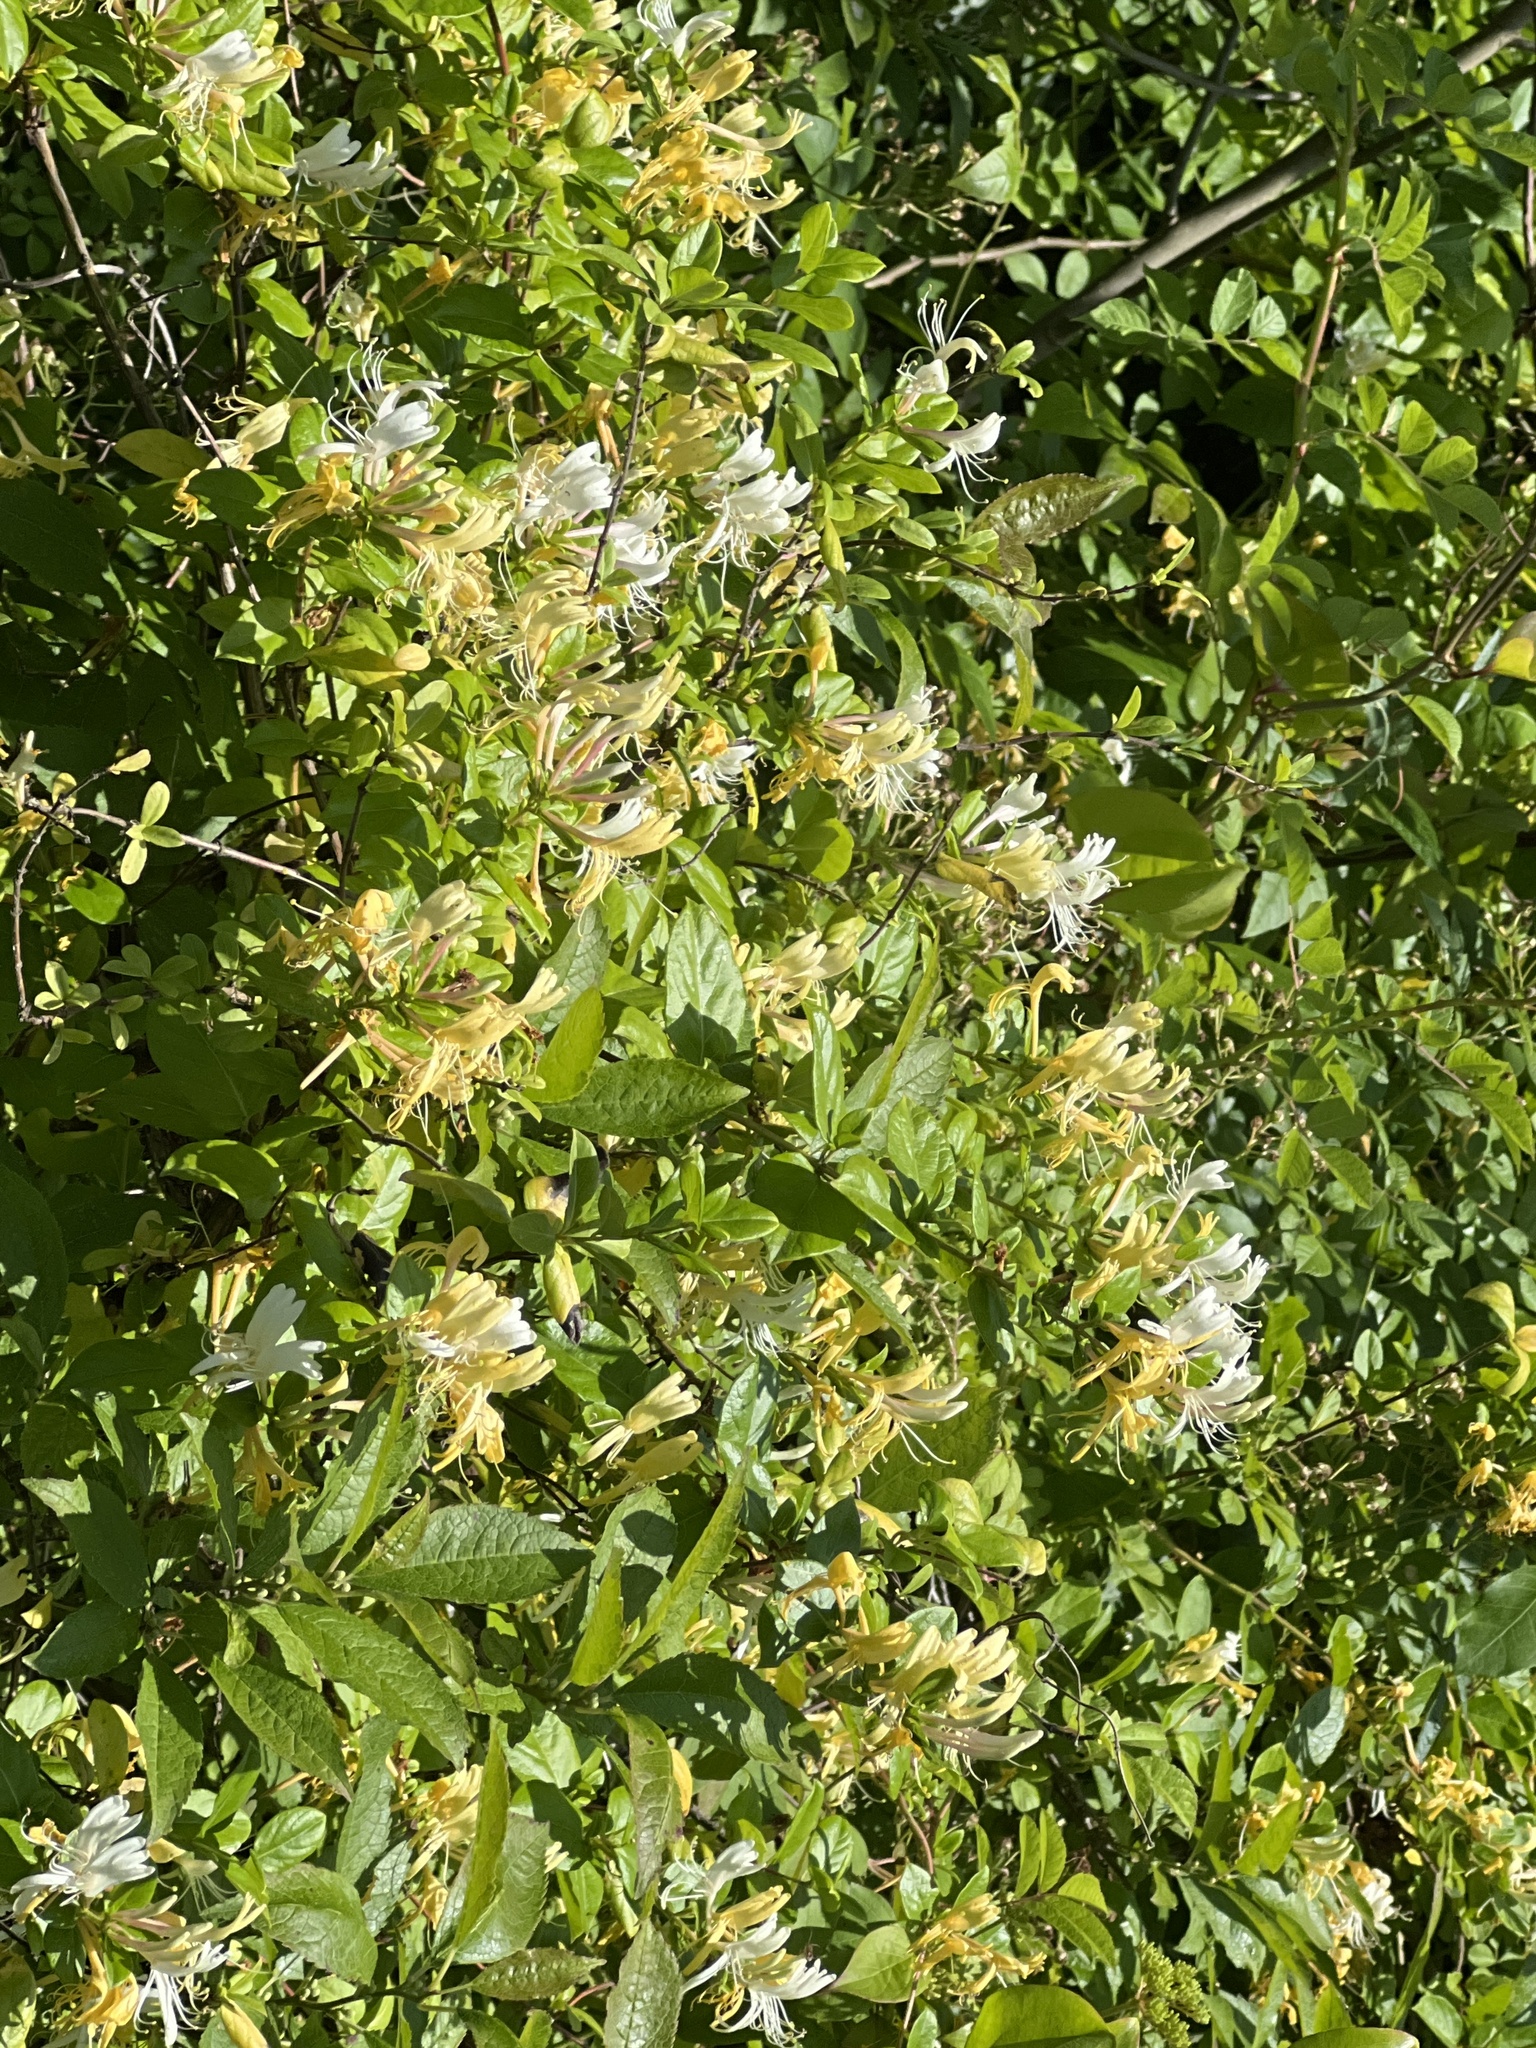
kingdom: Plantae
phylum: Tracheophyta
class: Magnoliopsida
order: Dipsacales
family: Caprifoliaceae
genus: Lonicera
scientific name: Lonicera japonica
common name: Japanese honeysuckle
